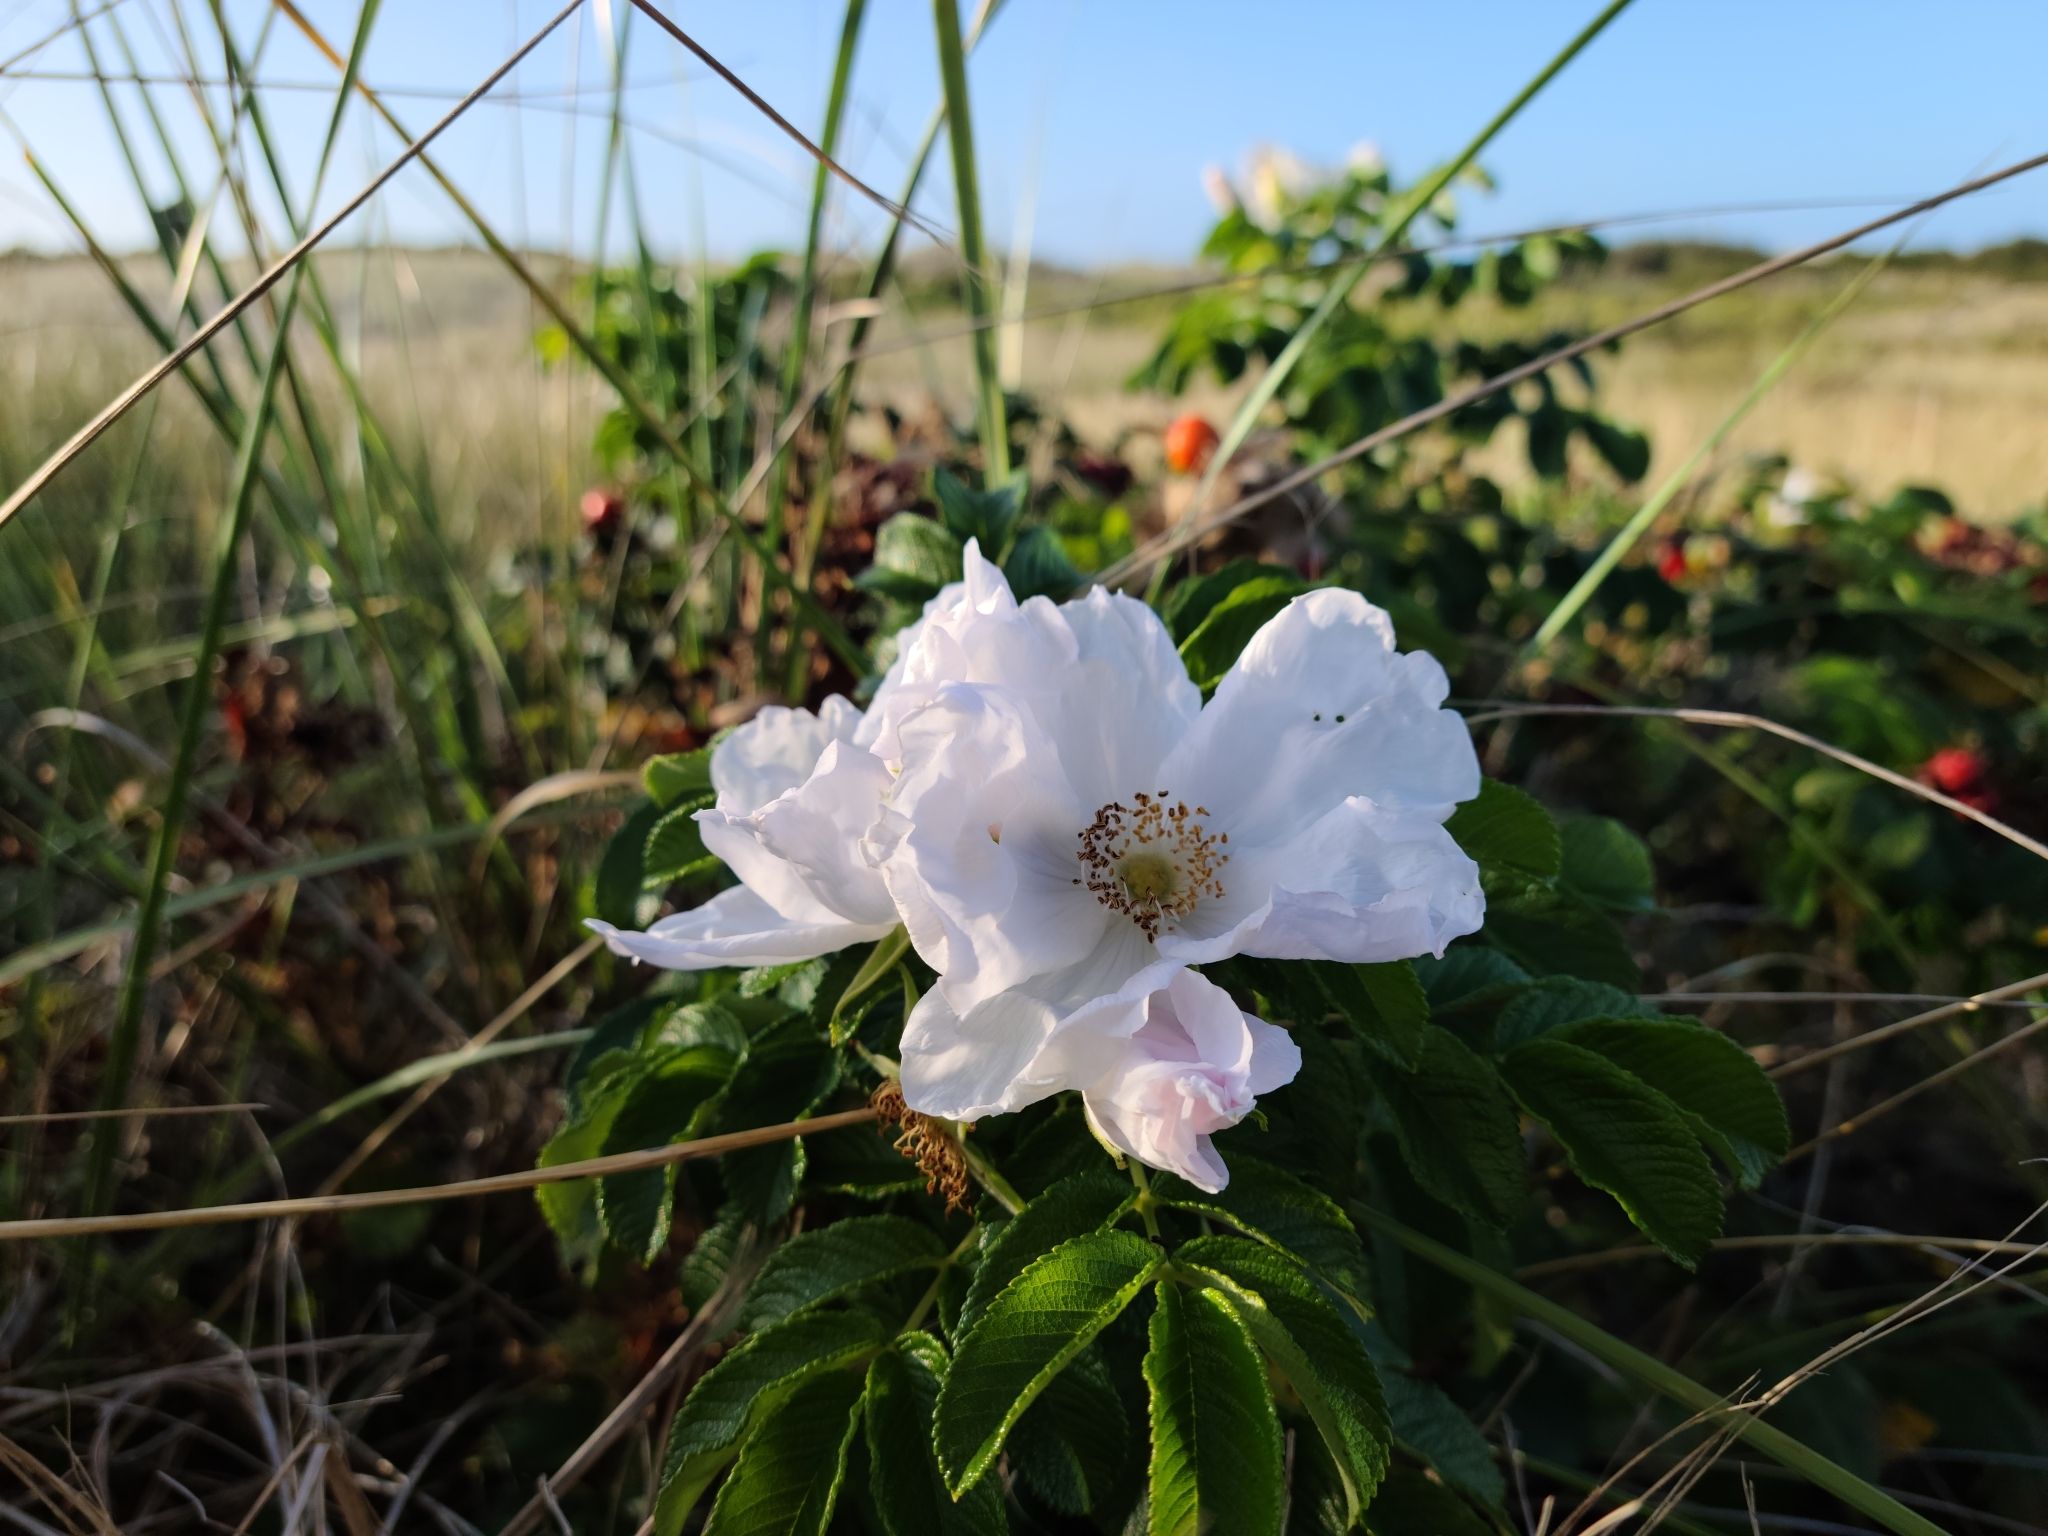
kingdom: Plantae
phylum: Tracheophyta
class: Magnoliopsida
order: Rosales
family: Rosaceae
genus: Rosa
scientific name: Rosa rugosa
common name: Japanese rose
